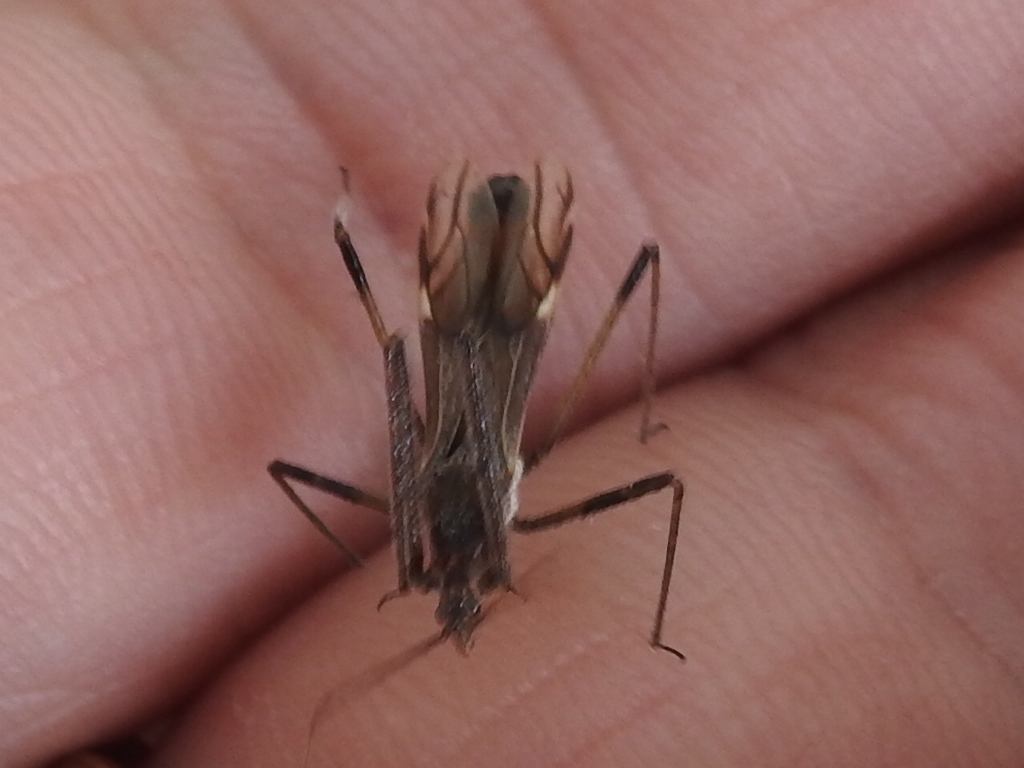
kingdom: Animalia
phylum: Arthropoda
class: Insecta
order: Hemiptera
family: Reduviidae
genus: Zelus
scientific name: Zelus tetracanthus
